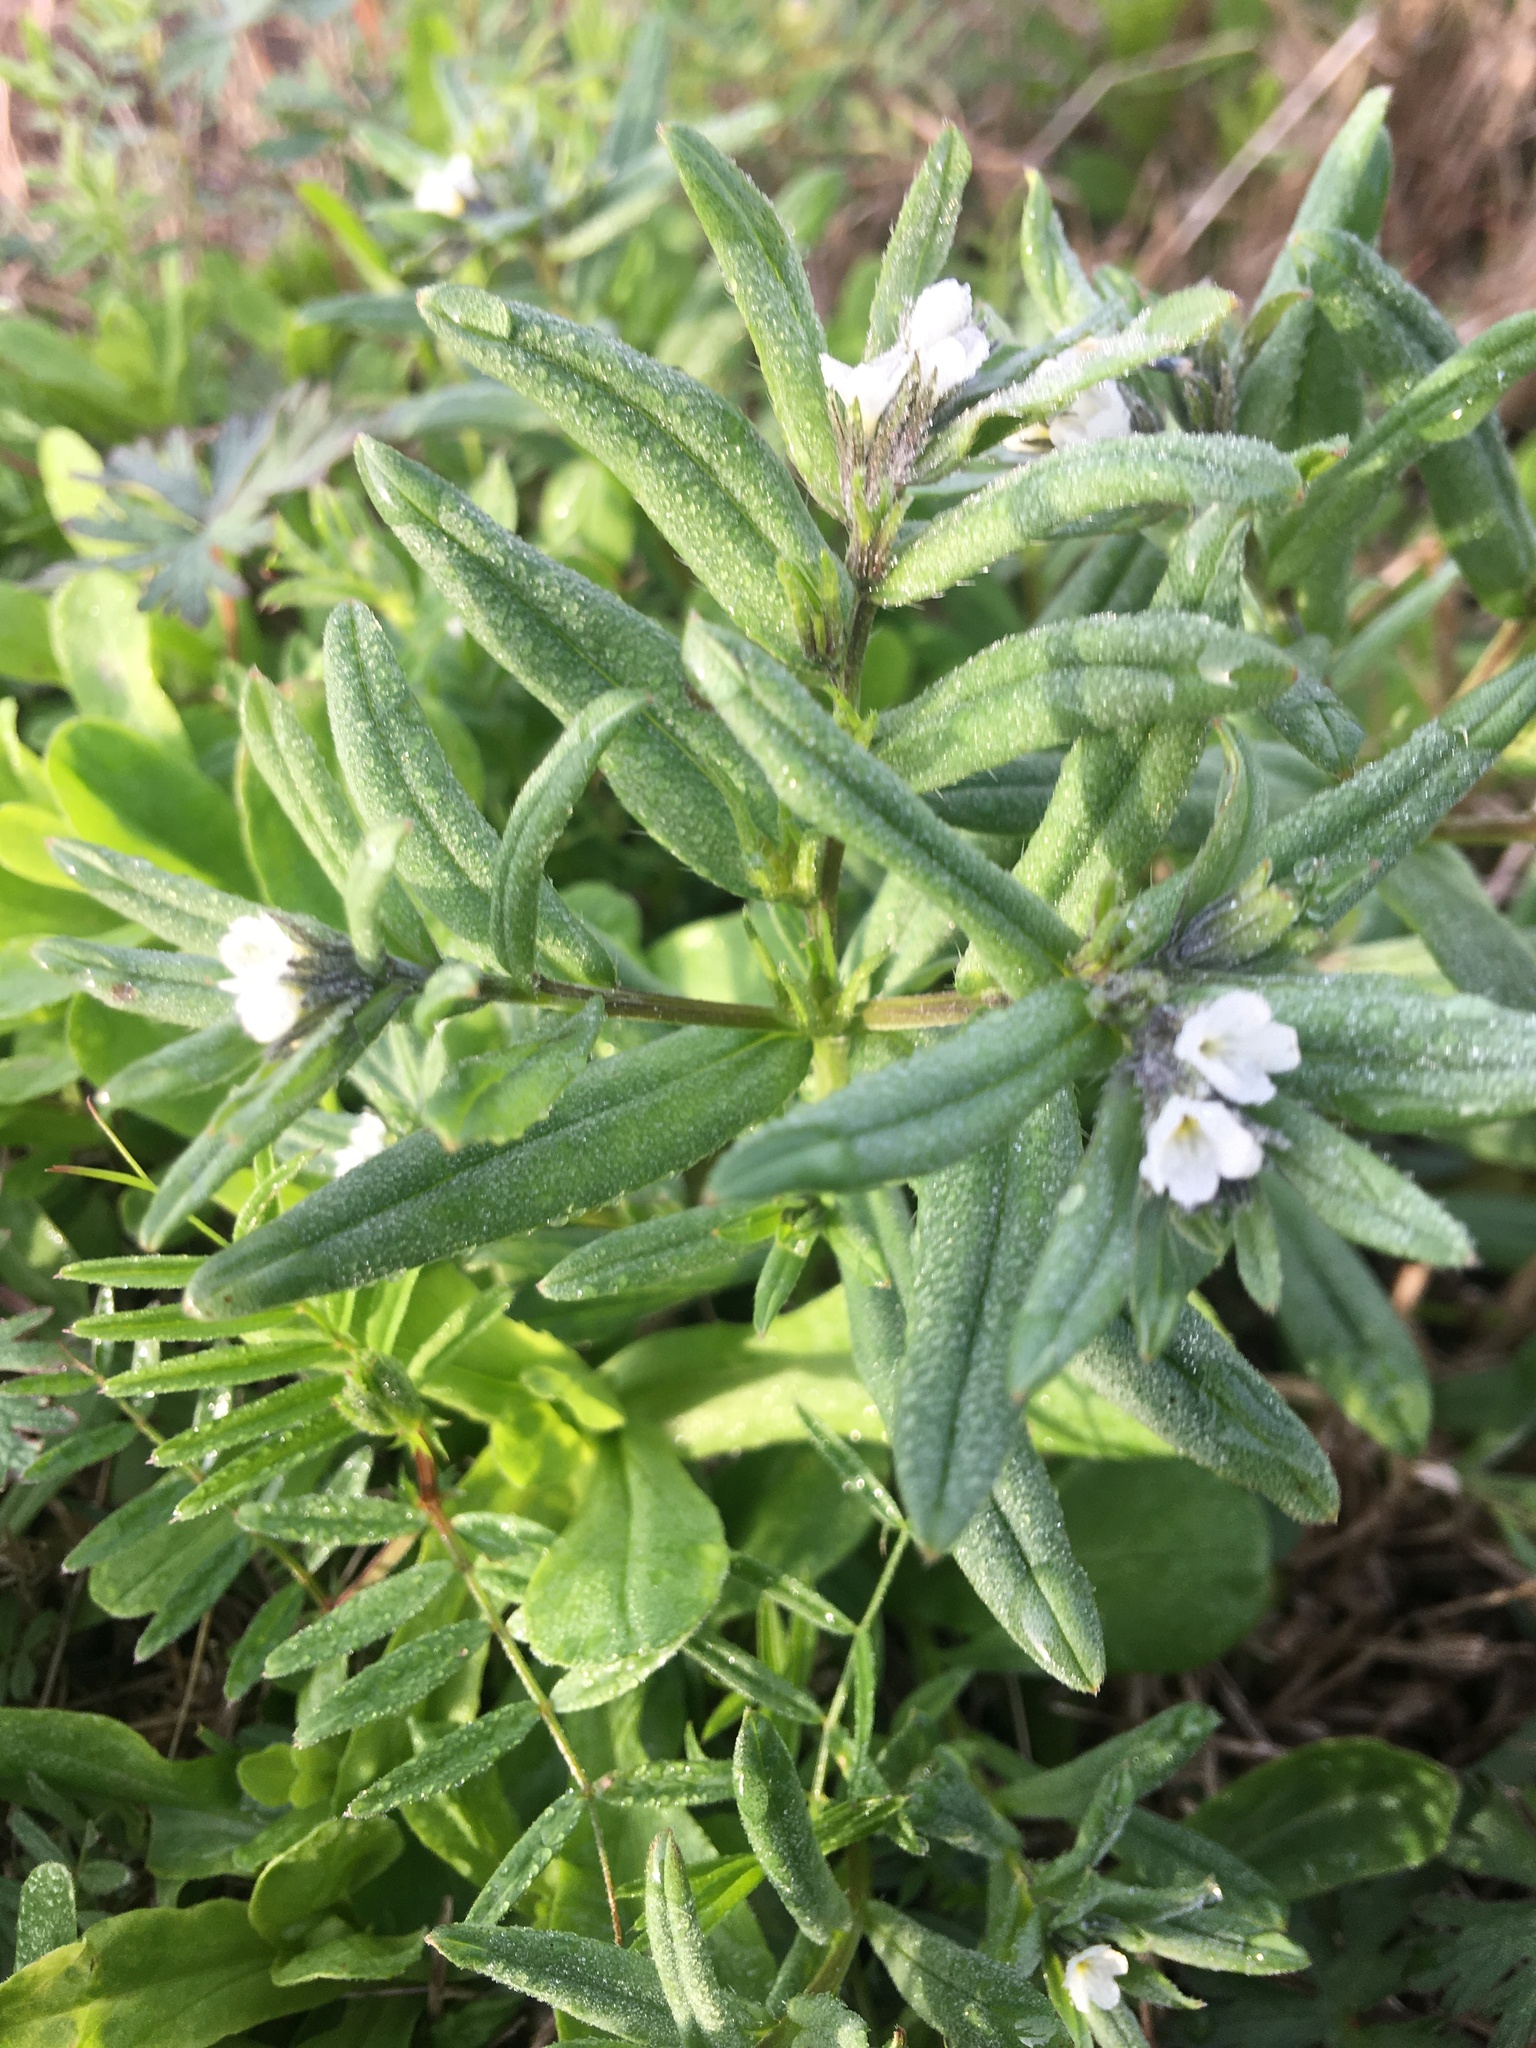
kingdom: Plantae
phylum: Tracheophyta
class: Magnoliopsida
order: Boraginales
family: Boraginaceae
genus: Buglossoides
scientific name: Buglossoides arvensis
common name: Corn gromwell
